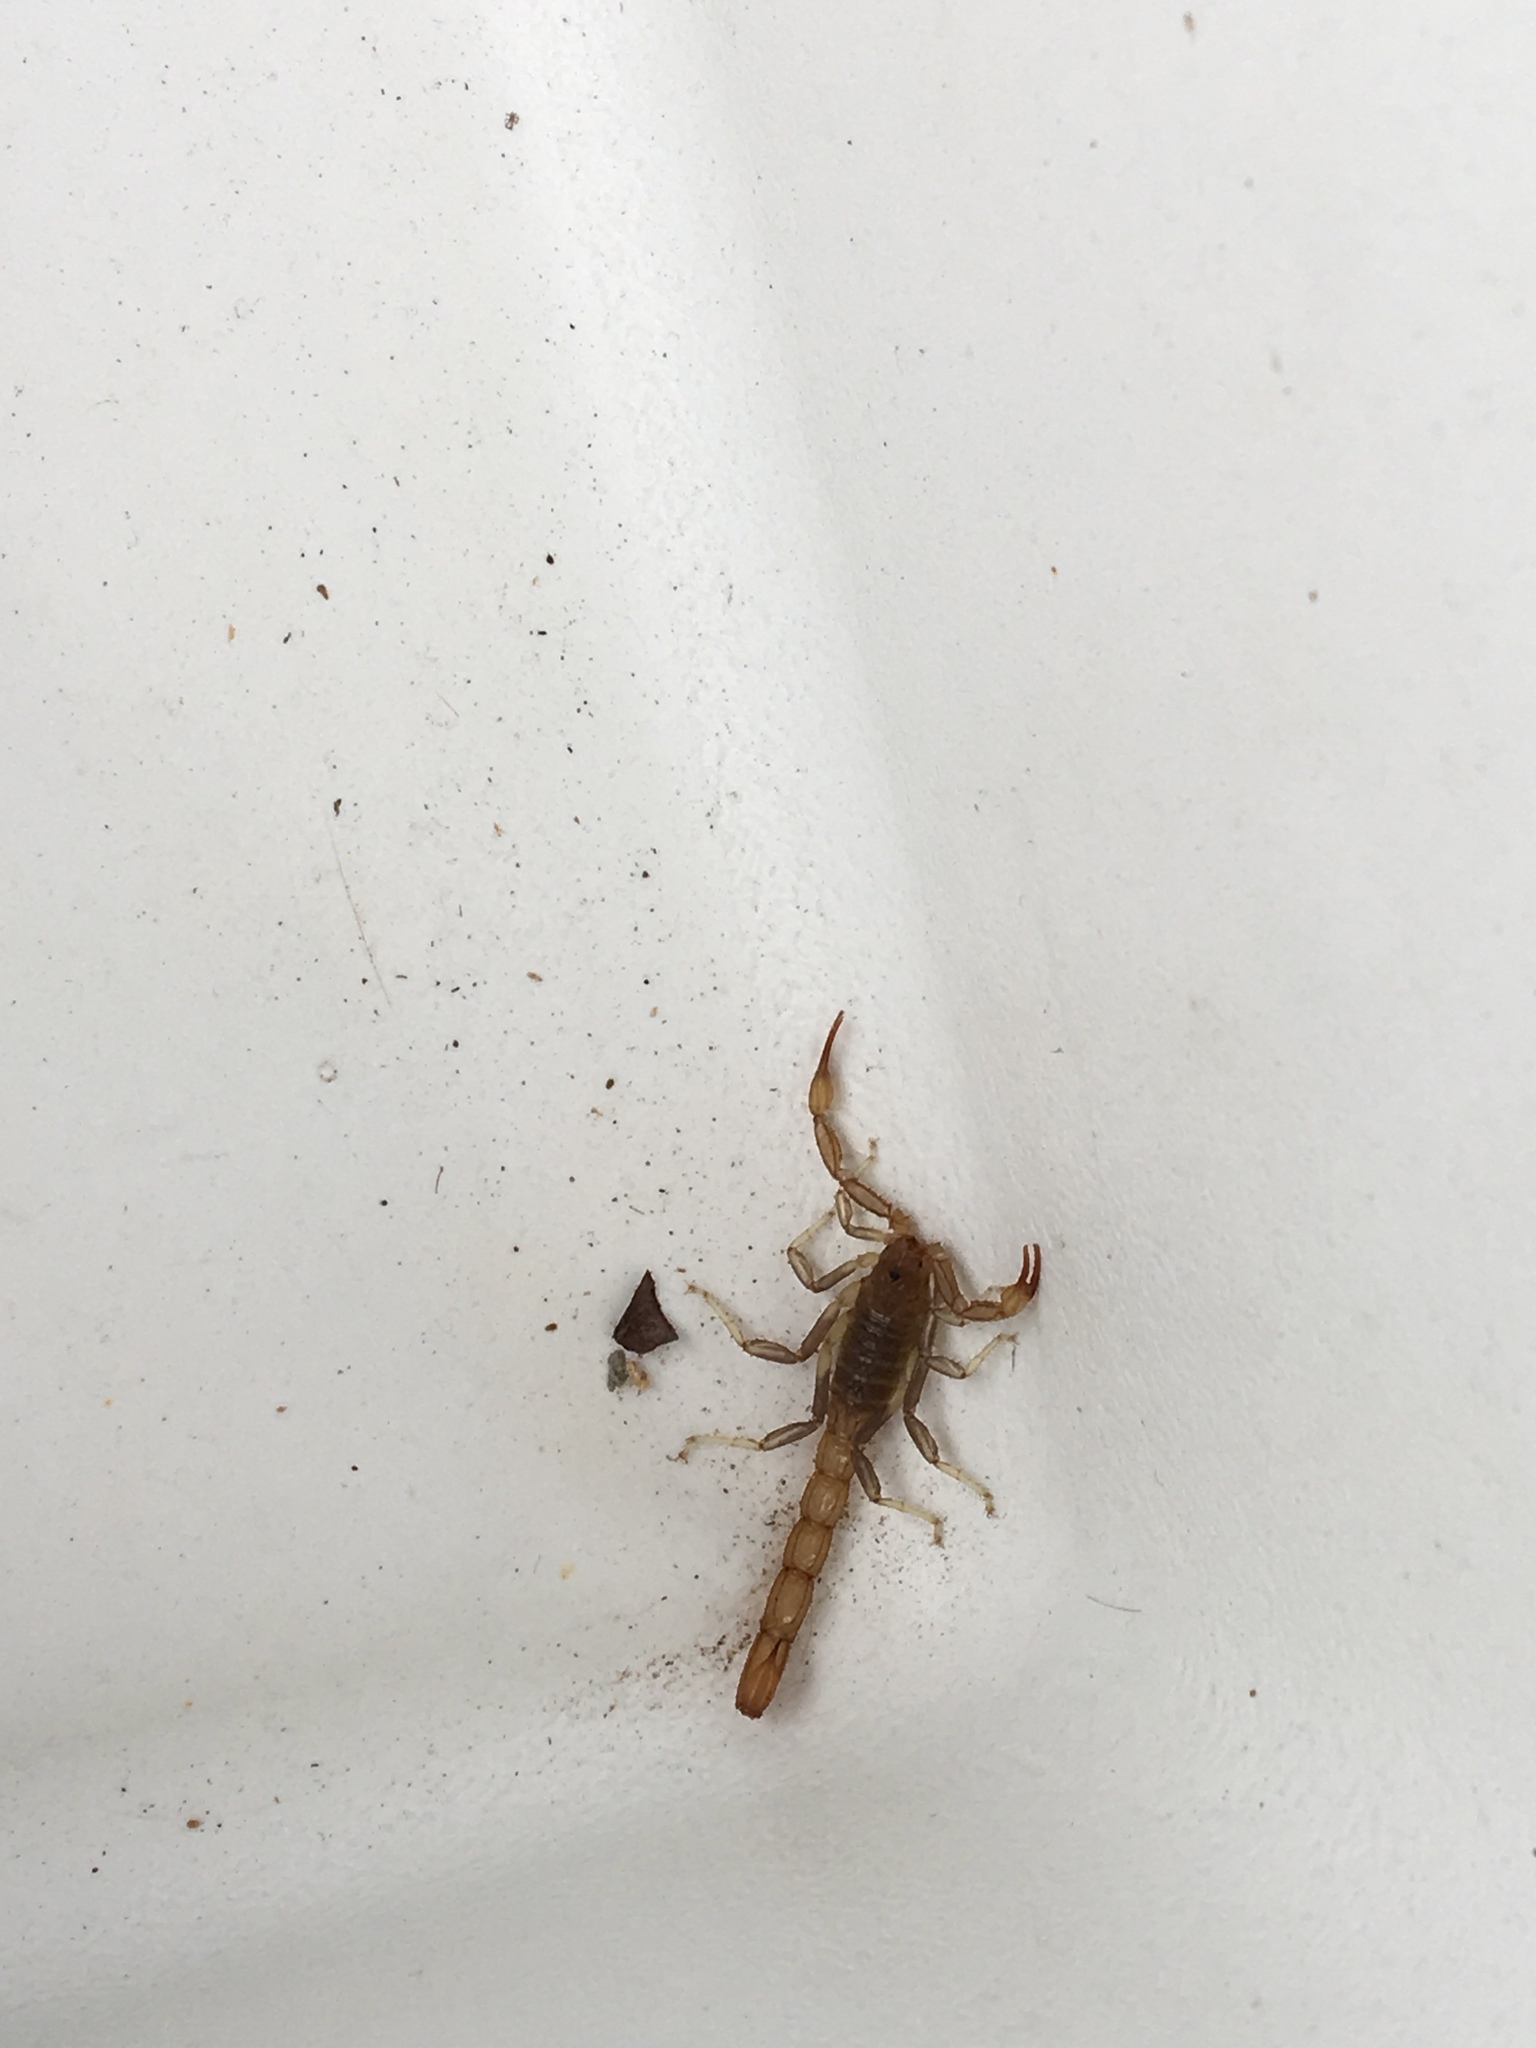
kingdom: Animalia
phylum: Arthropoda
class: Arachnida
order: Scorpiones
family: Vaejovidae
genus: Paravaejovis
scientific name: Paravaejovis puritanus
